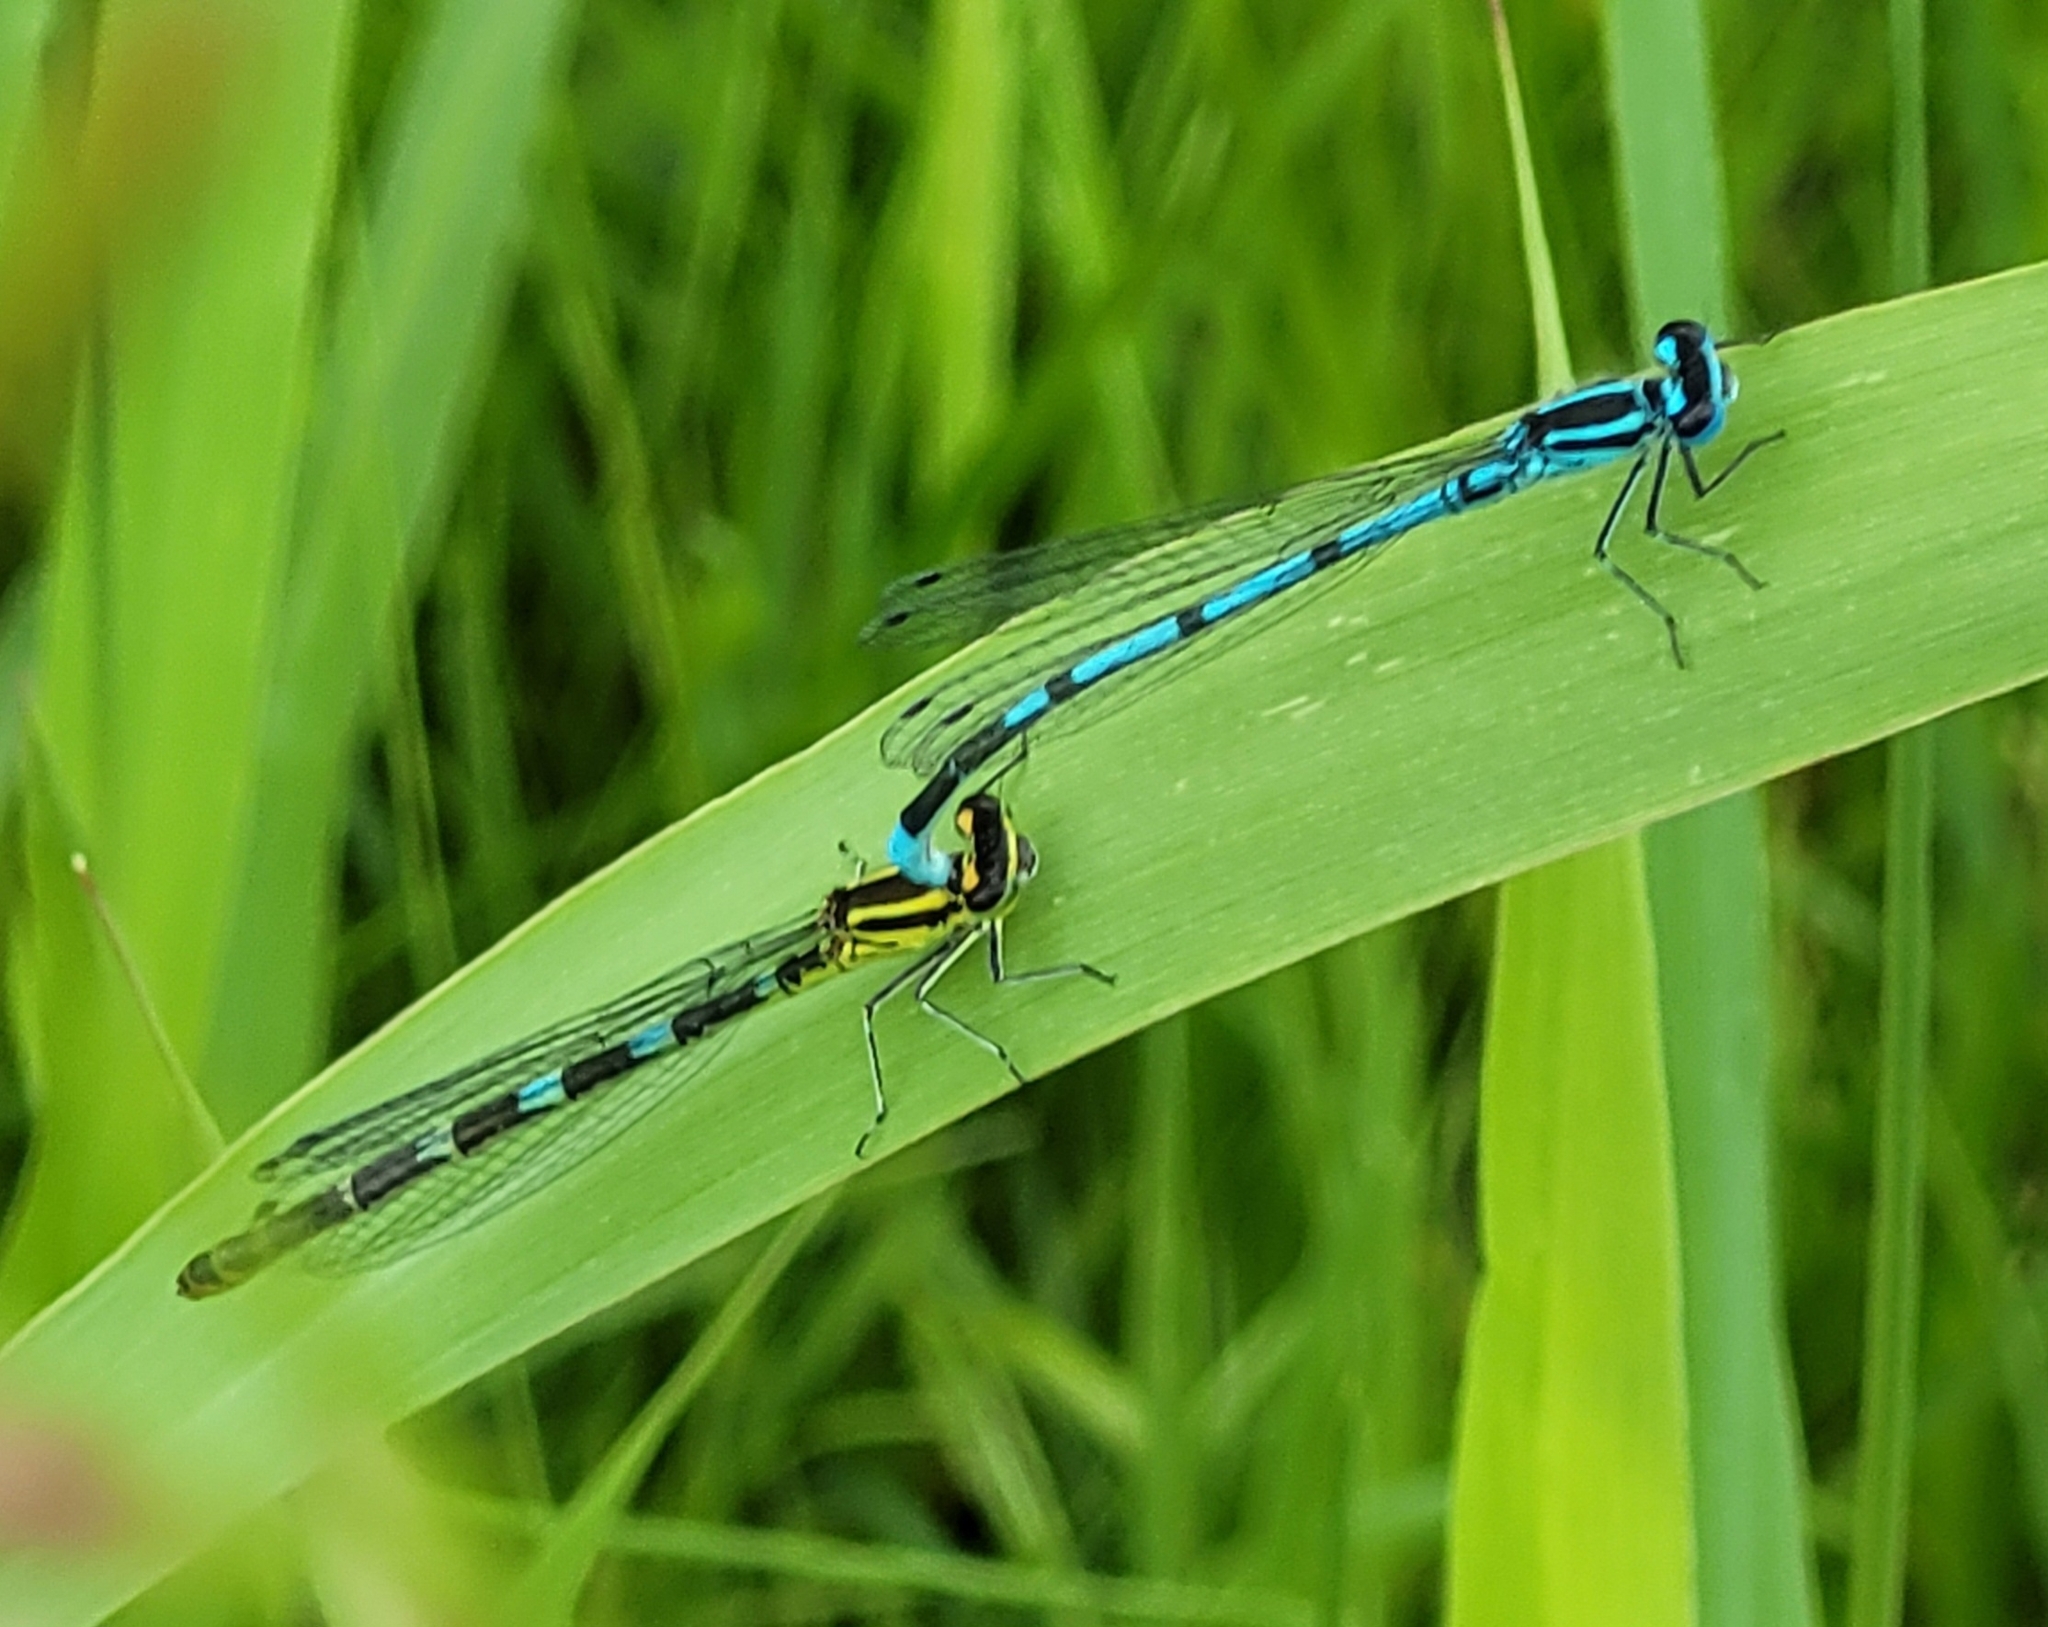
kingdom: Animalia
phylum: Arthropoda
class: Insecta
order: Odonata
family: Coenagrionidae
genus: Coenagrion
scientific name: Coenagrion puella
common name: Azure damselfly
